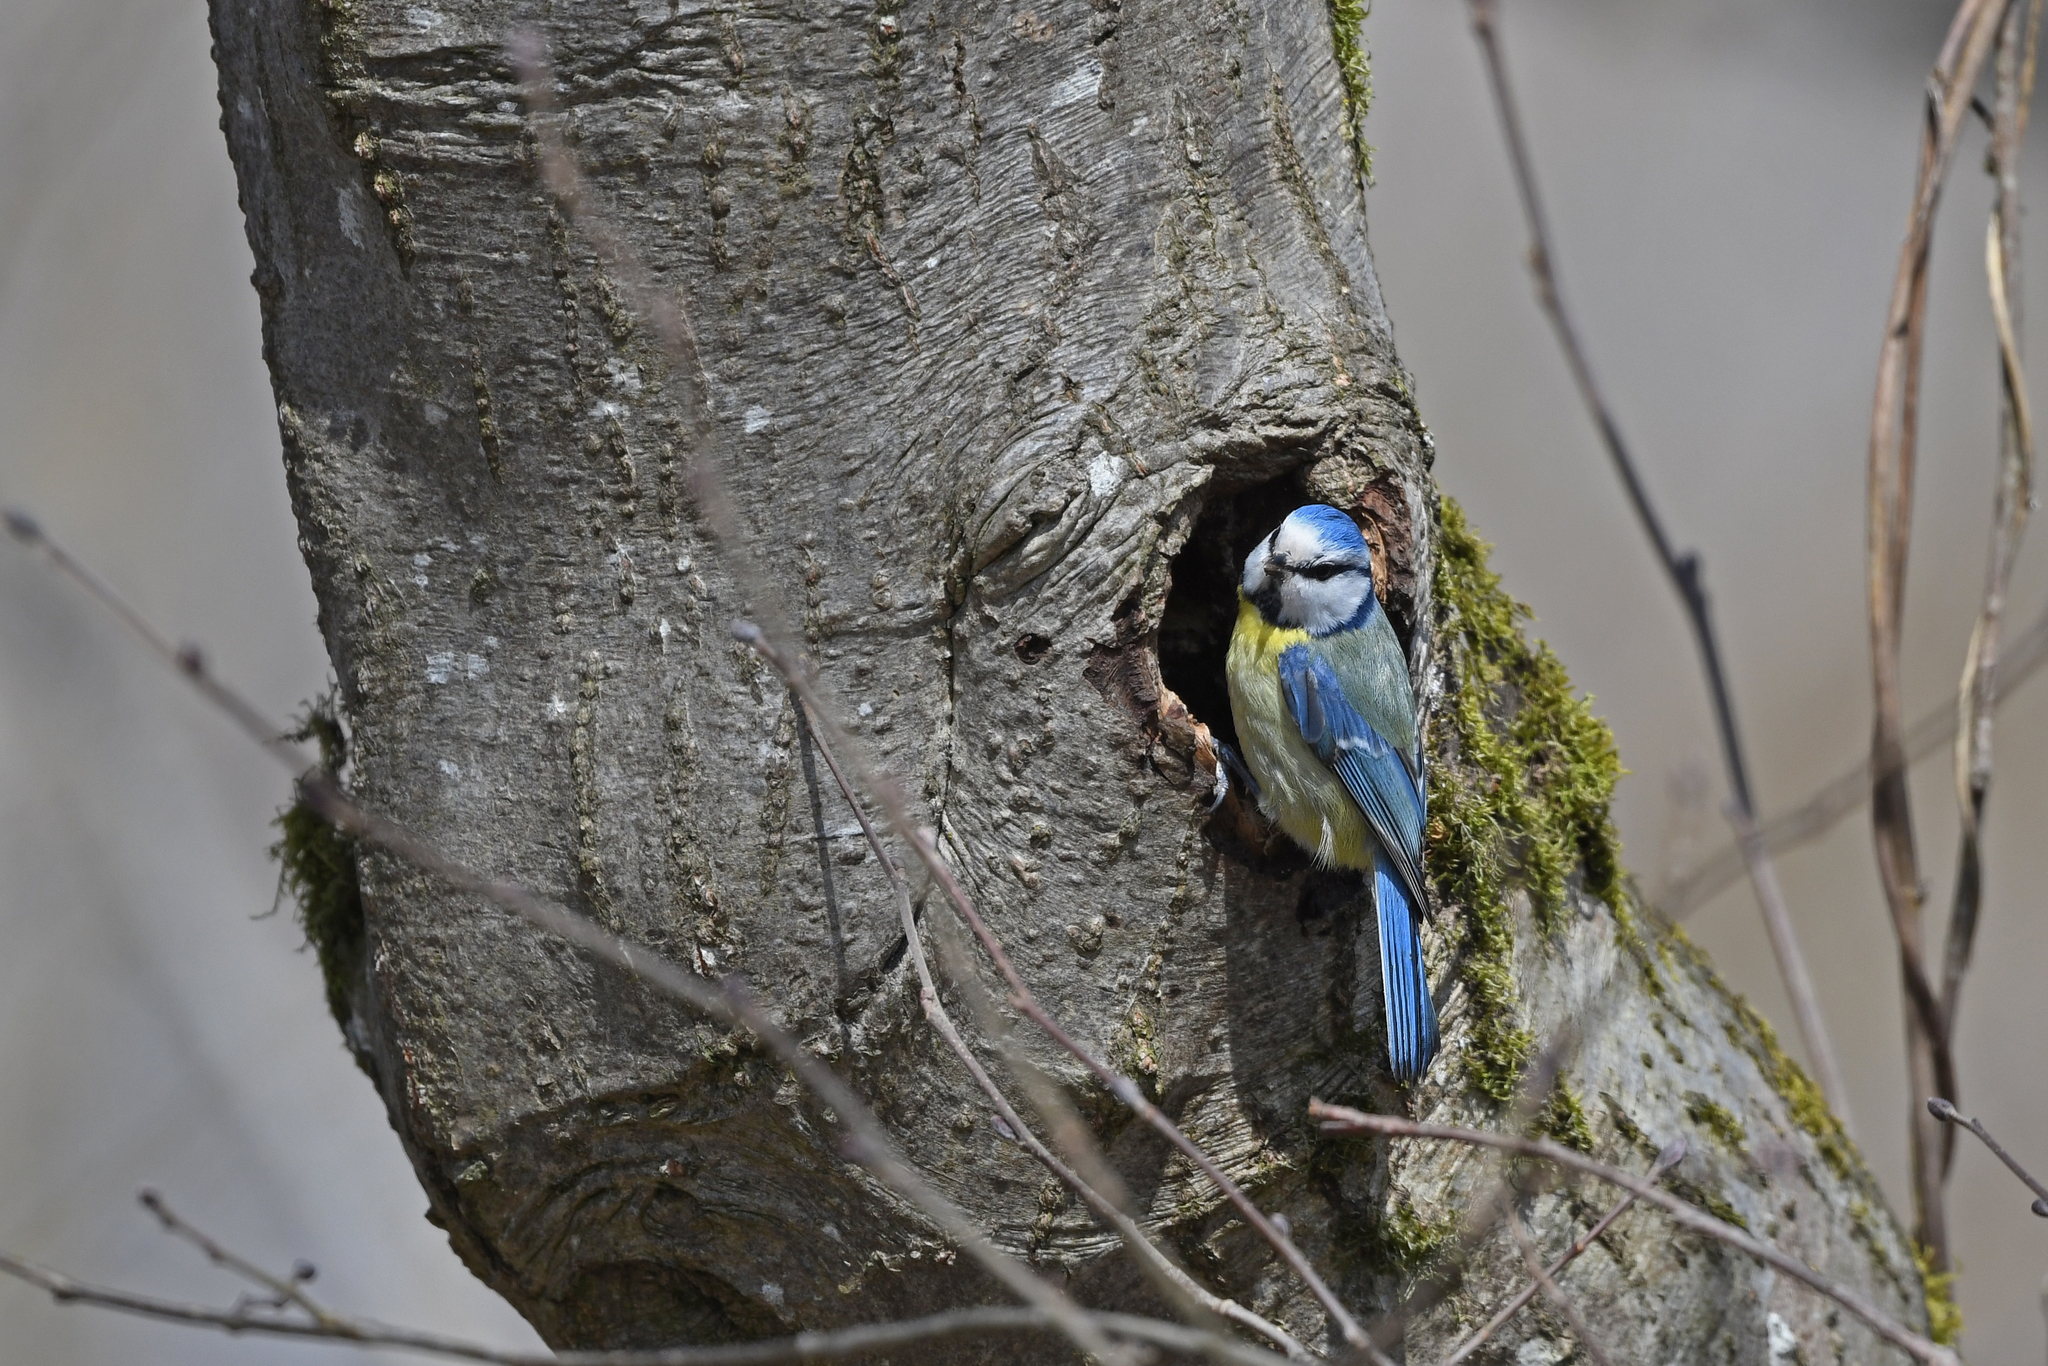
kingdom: Animalia
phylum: Chordata
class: Aves
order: Passeriformes
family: Paridae
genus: Cyanistes
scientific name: Cyanistes caeruleus
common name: Eurasian blue tit
